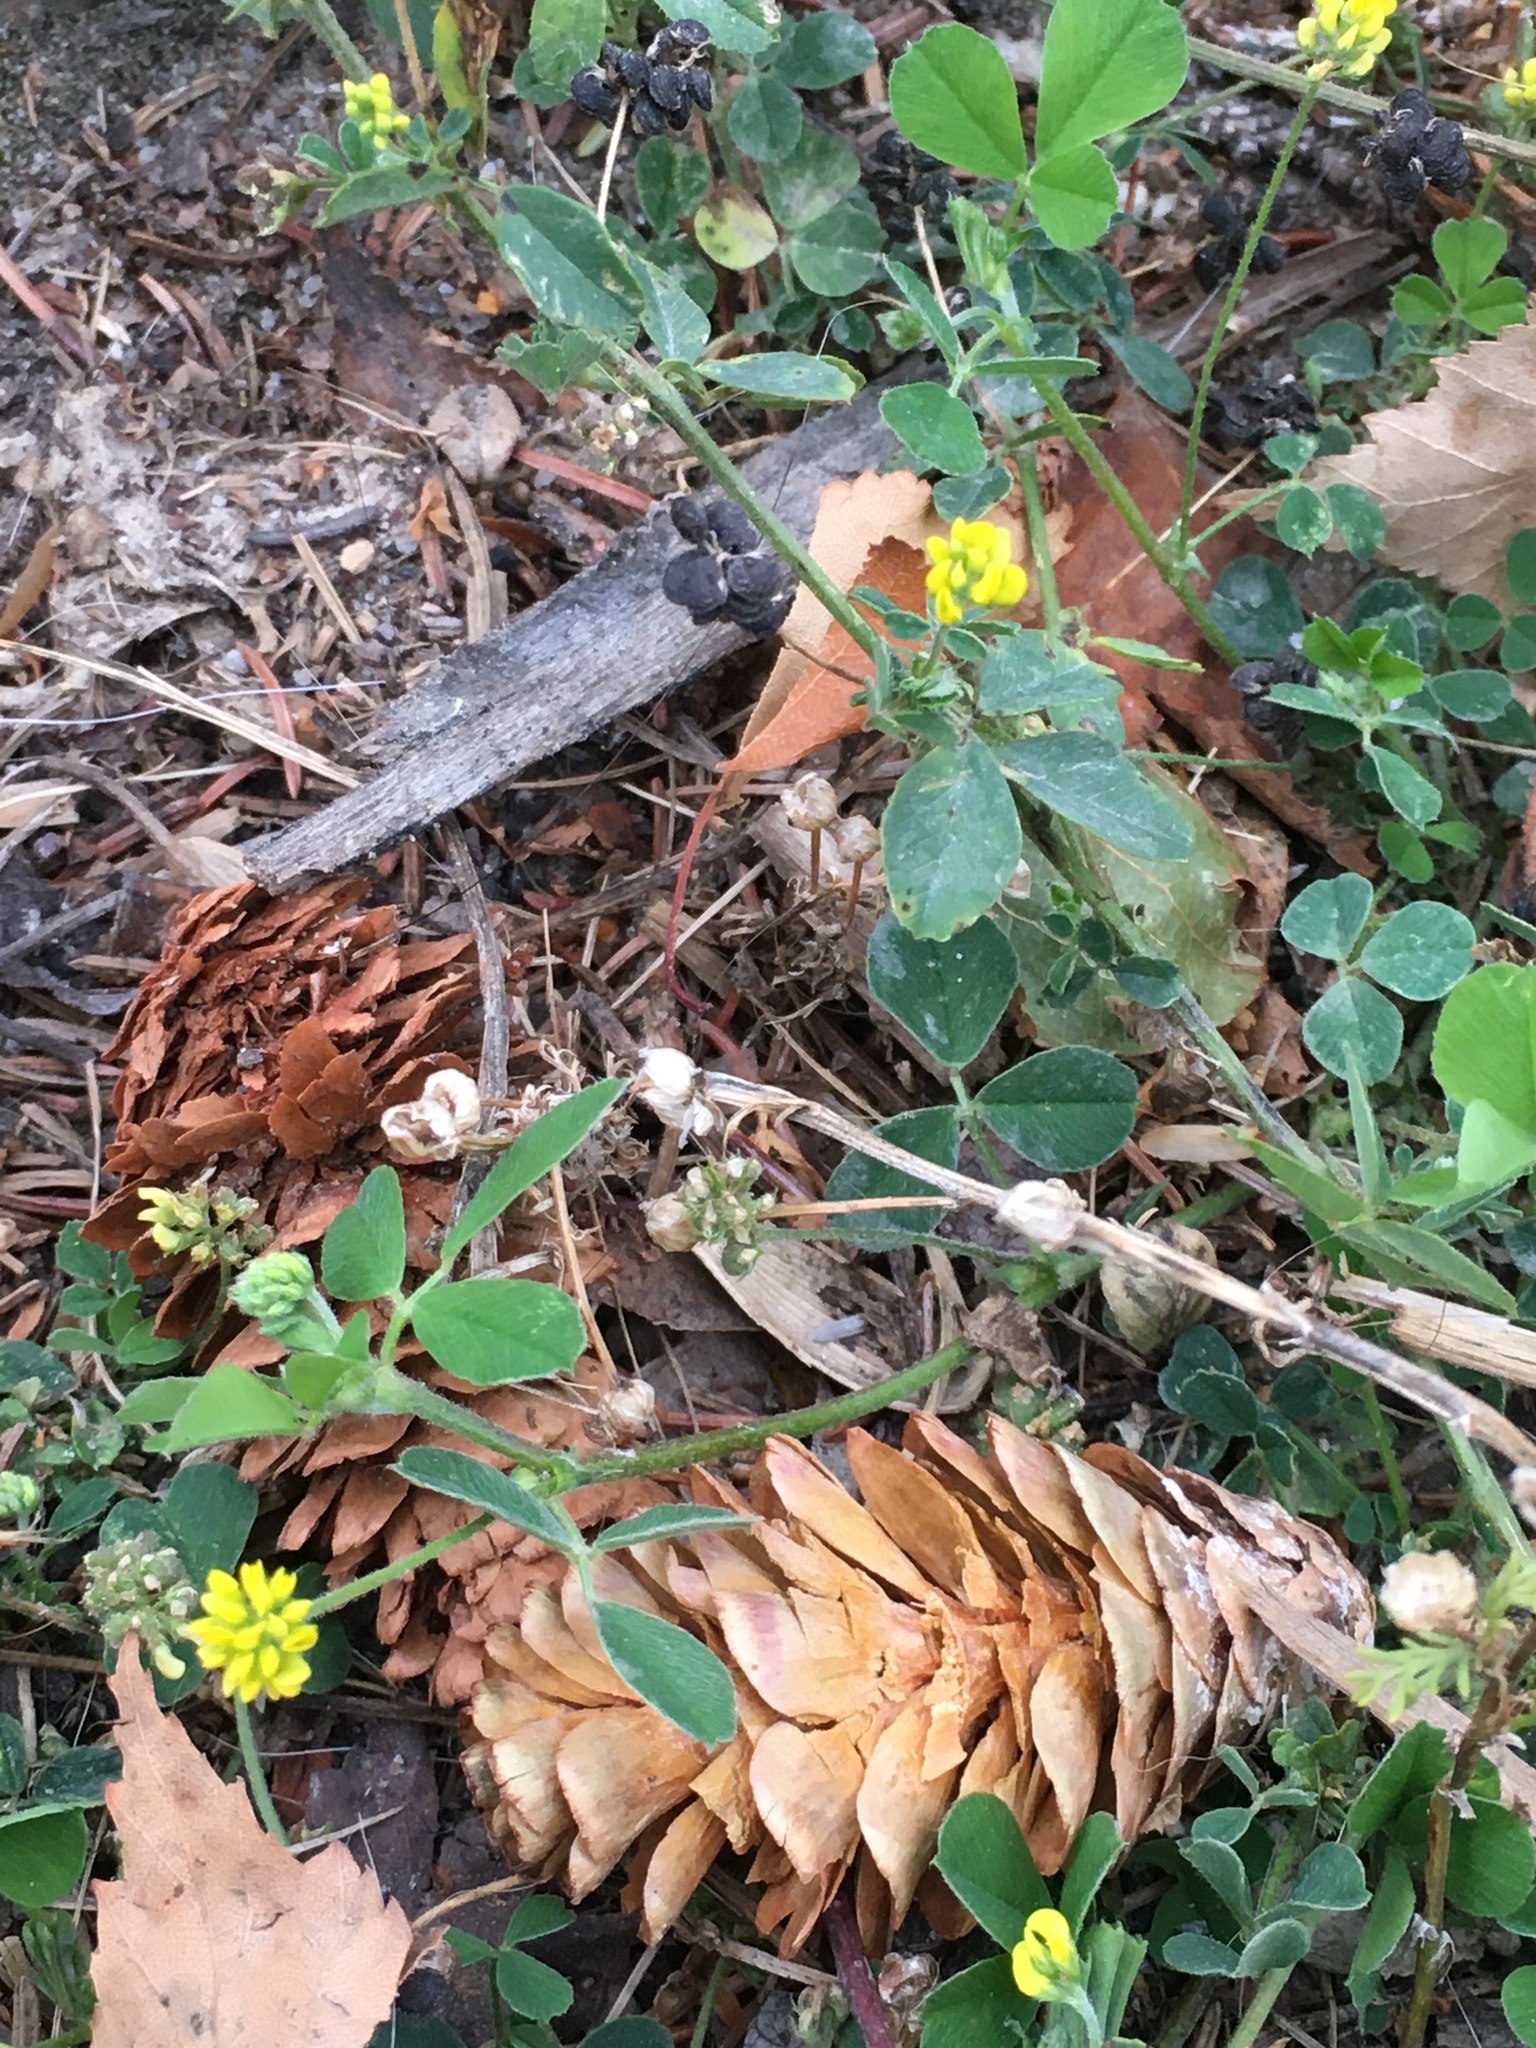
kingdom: Plantae
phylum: Tracheophyta
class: Magnoliopsida
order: Fabales
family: Fabaceae
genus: Medicago
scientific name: Medicago lupulina
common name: Black medick
